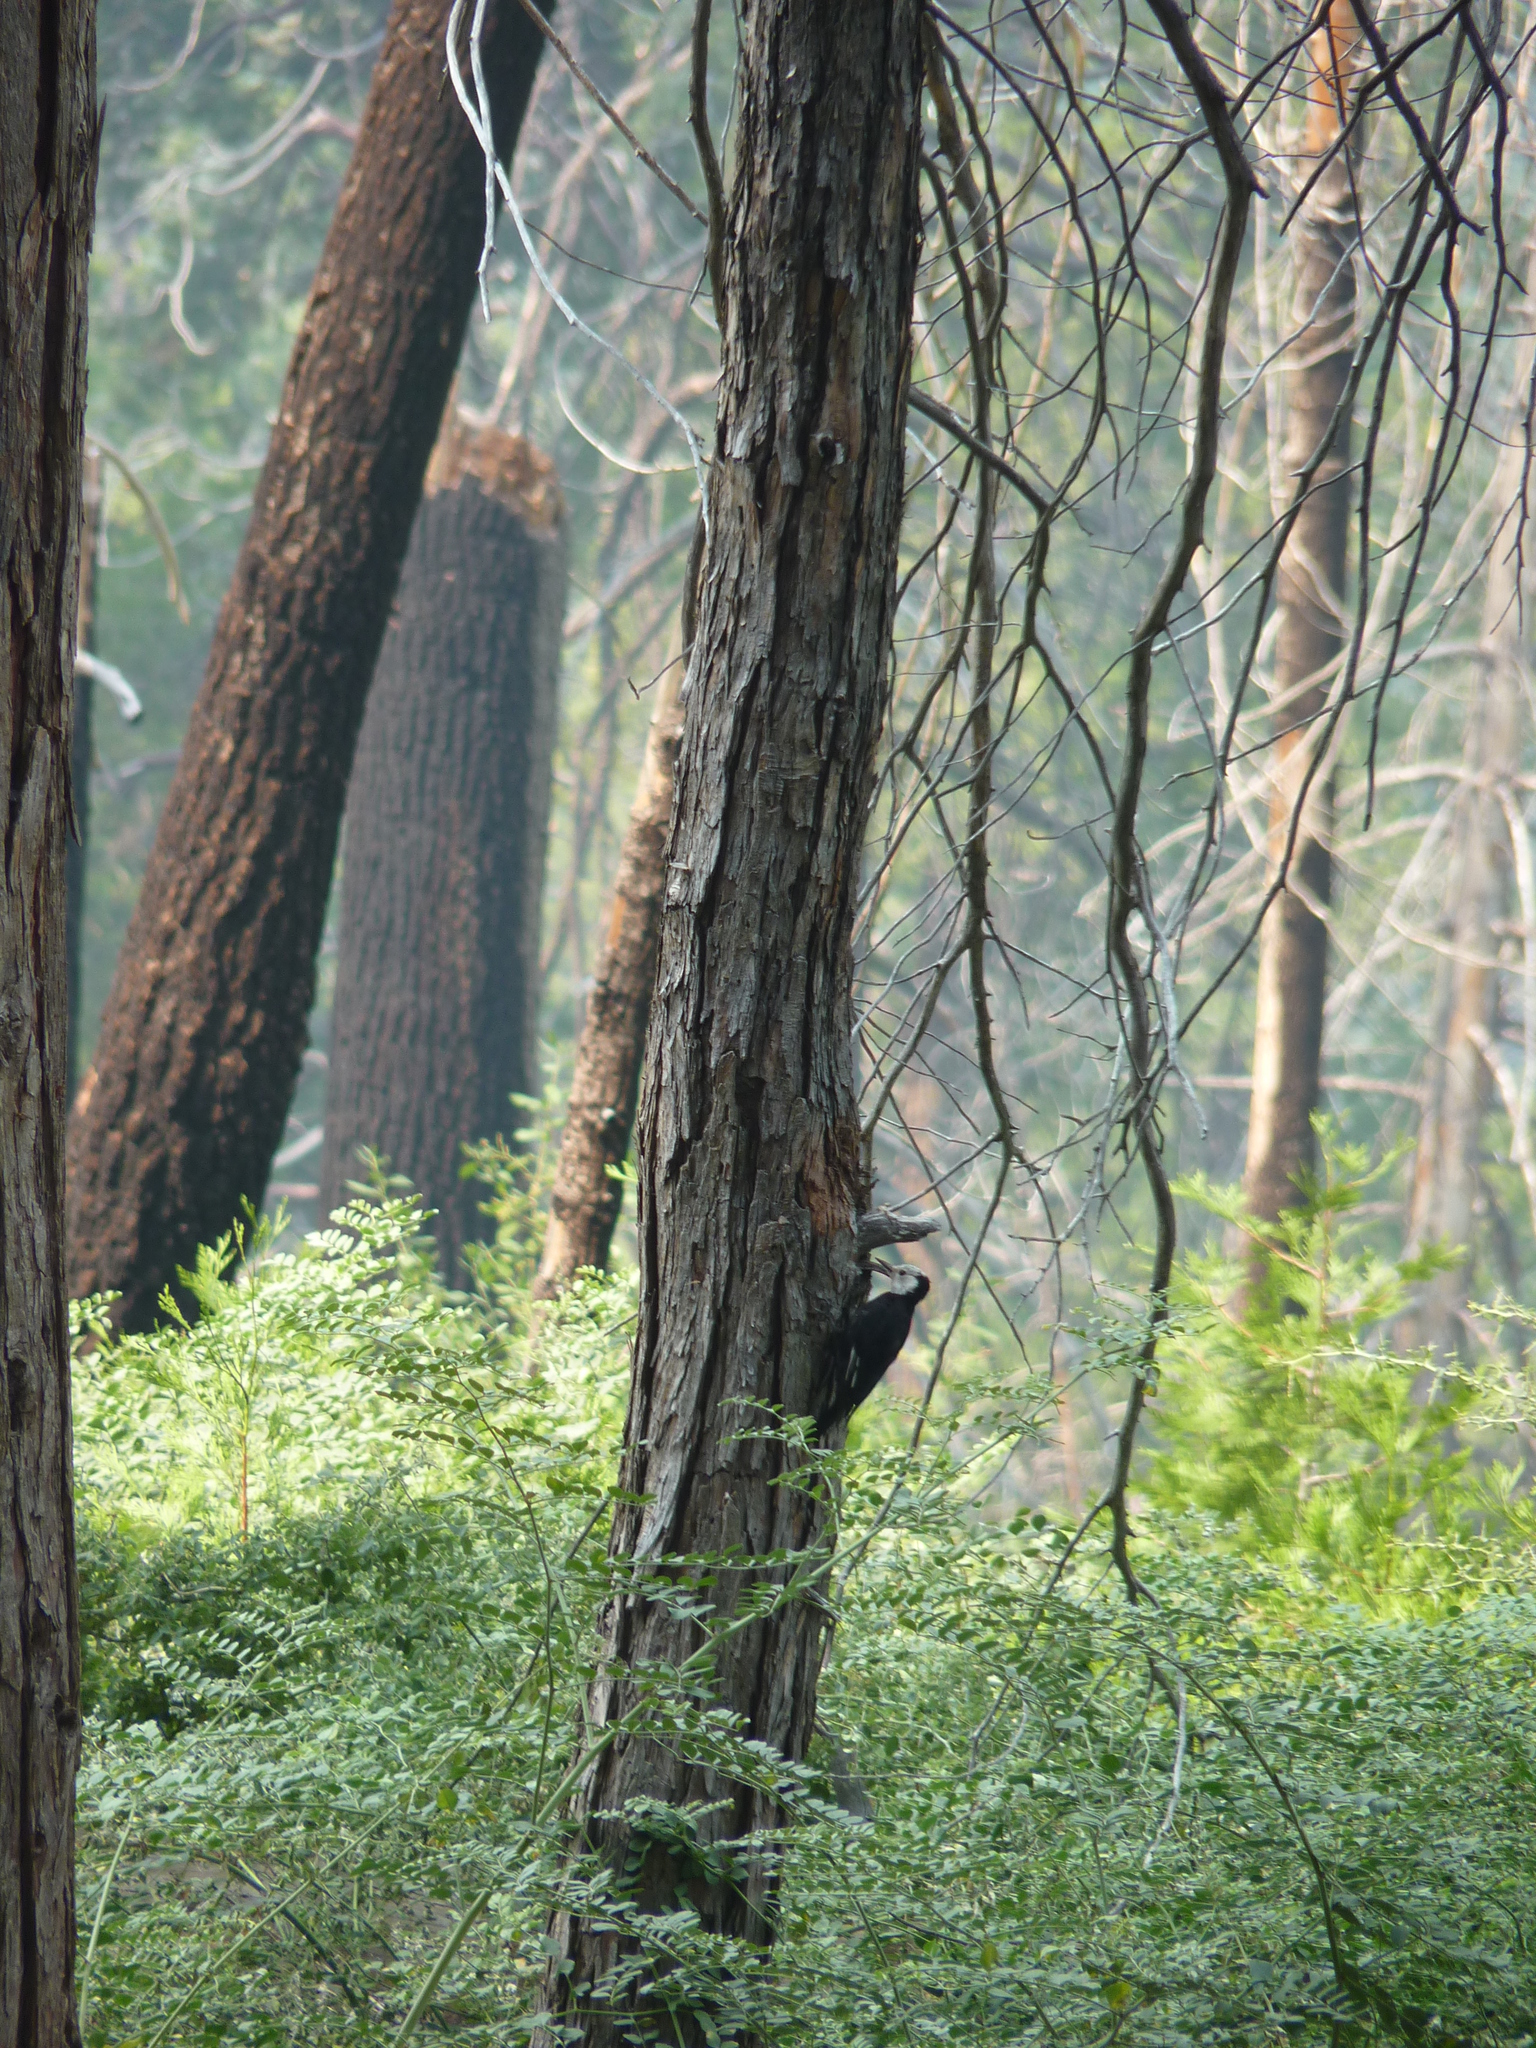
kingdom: Animalia
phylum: Chordata
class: Aves
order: Piciformes
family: Picidae
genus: Leuconotopicus
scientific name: Leuconotopicus albolarvatus
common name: White-headed woodpecker
